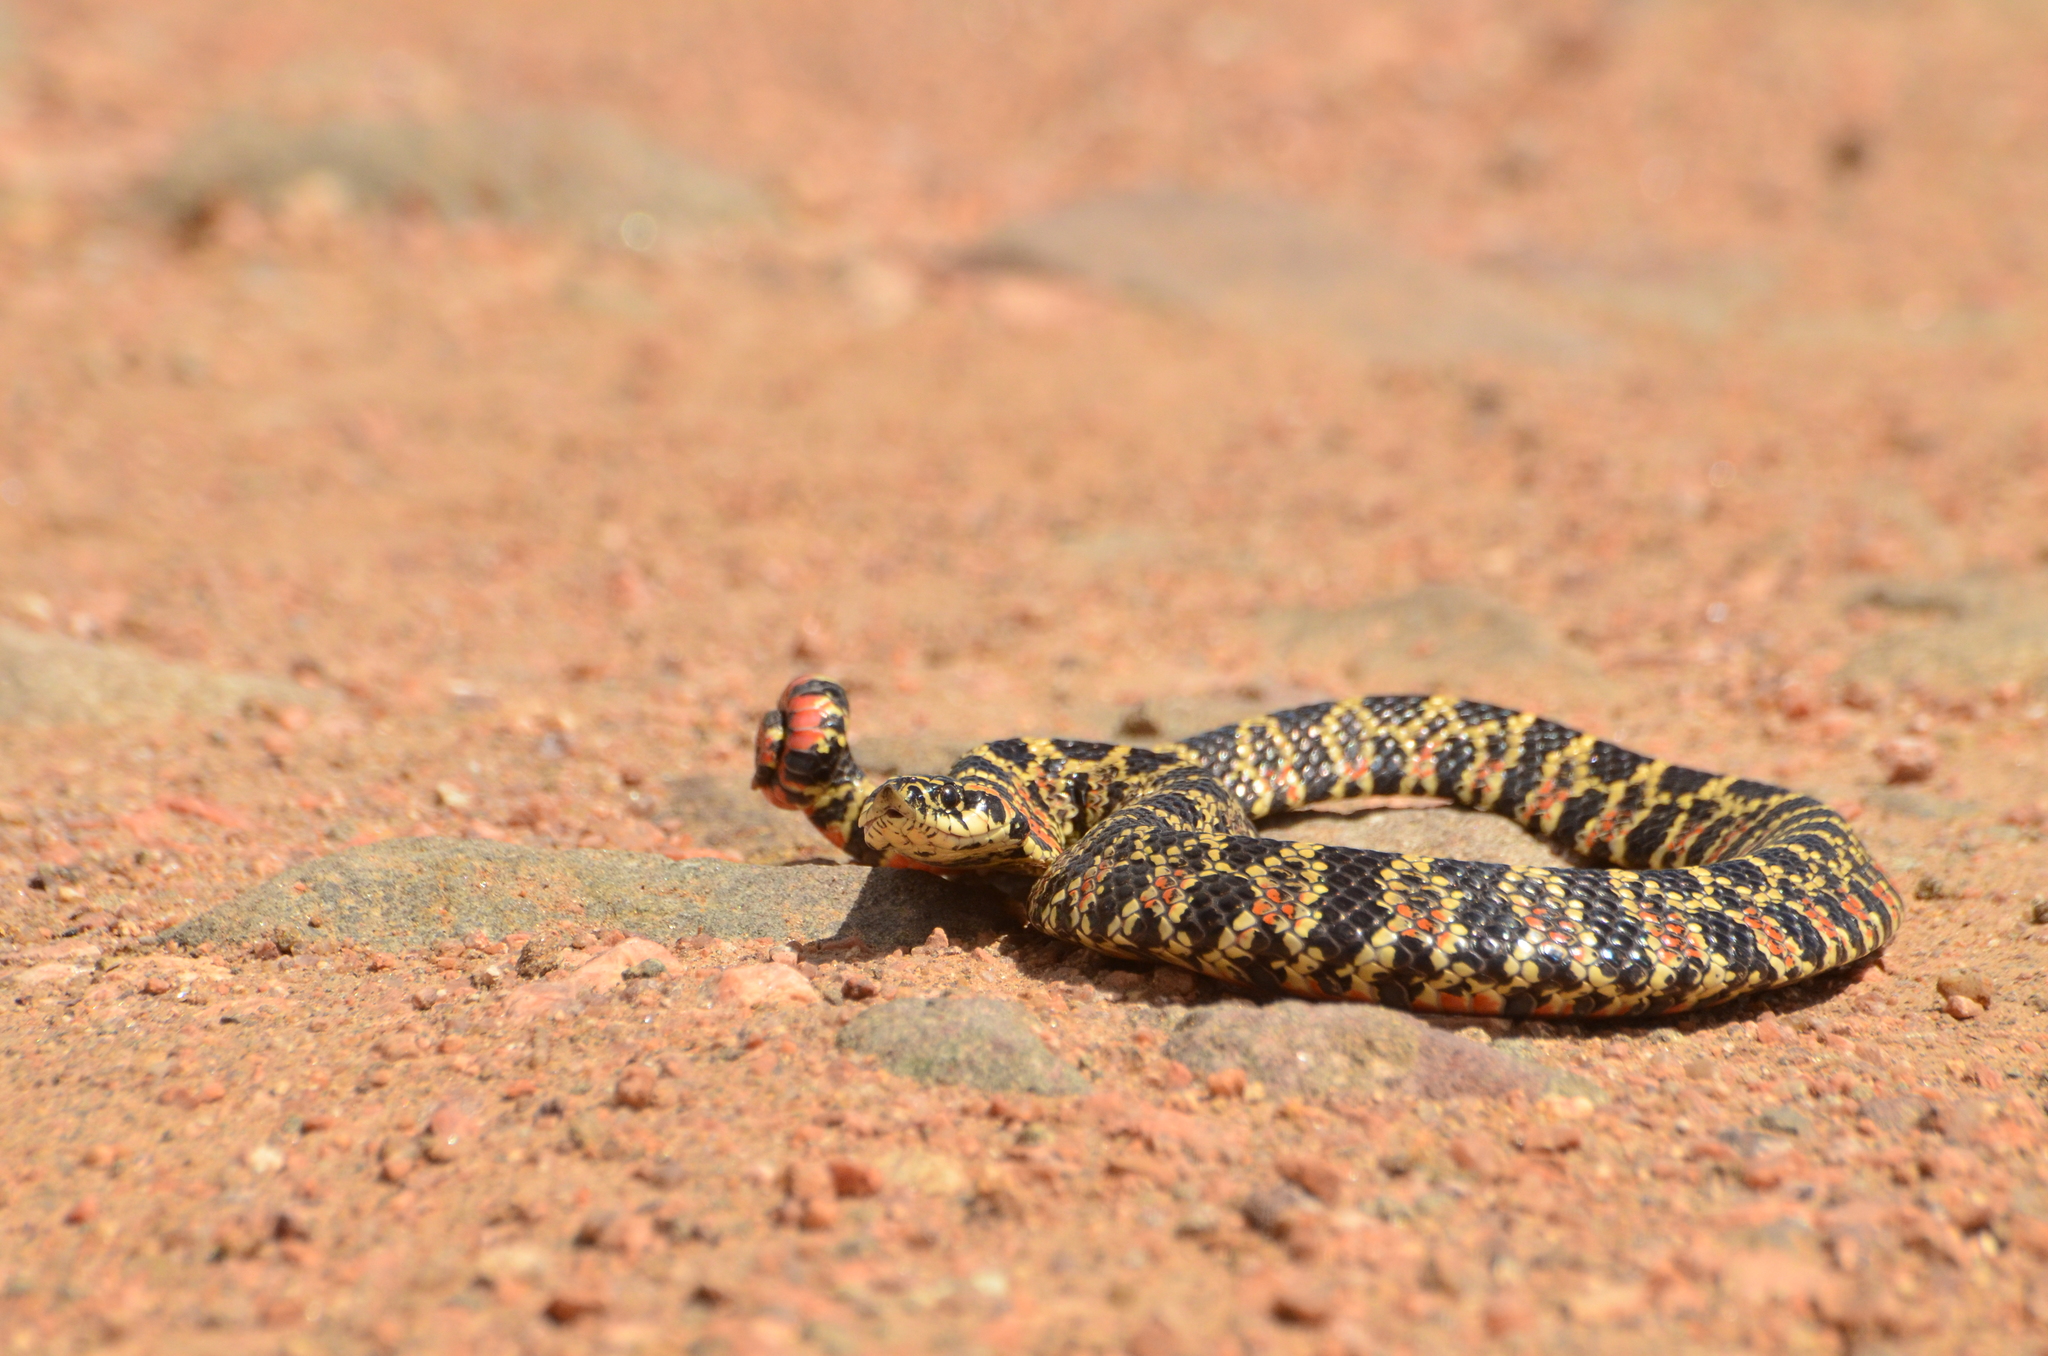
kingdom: Animalia
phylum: Chordata
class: Squamata
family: Colubridae
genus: Xenodon
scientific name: Xenodon dorbignyi
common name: South american hognose snake
